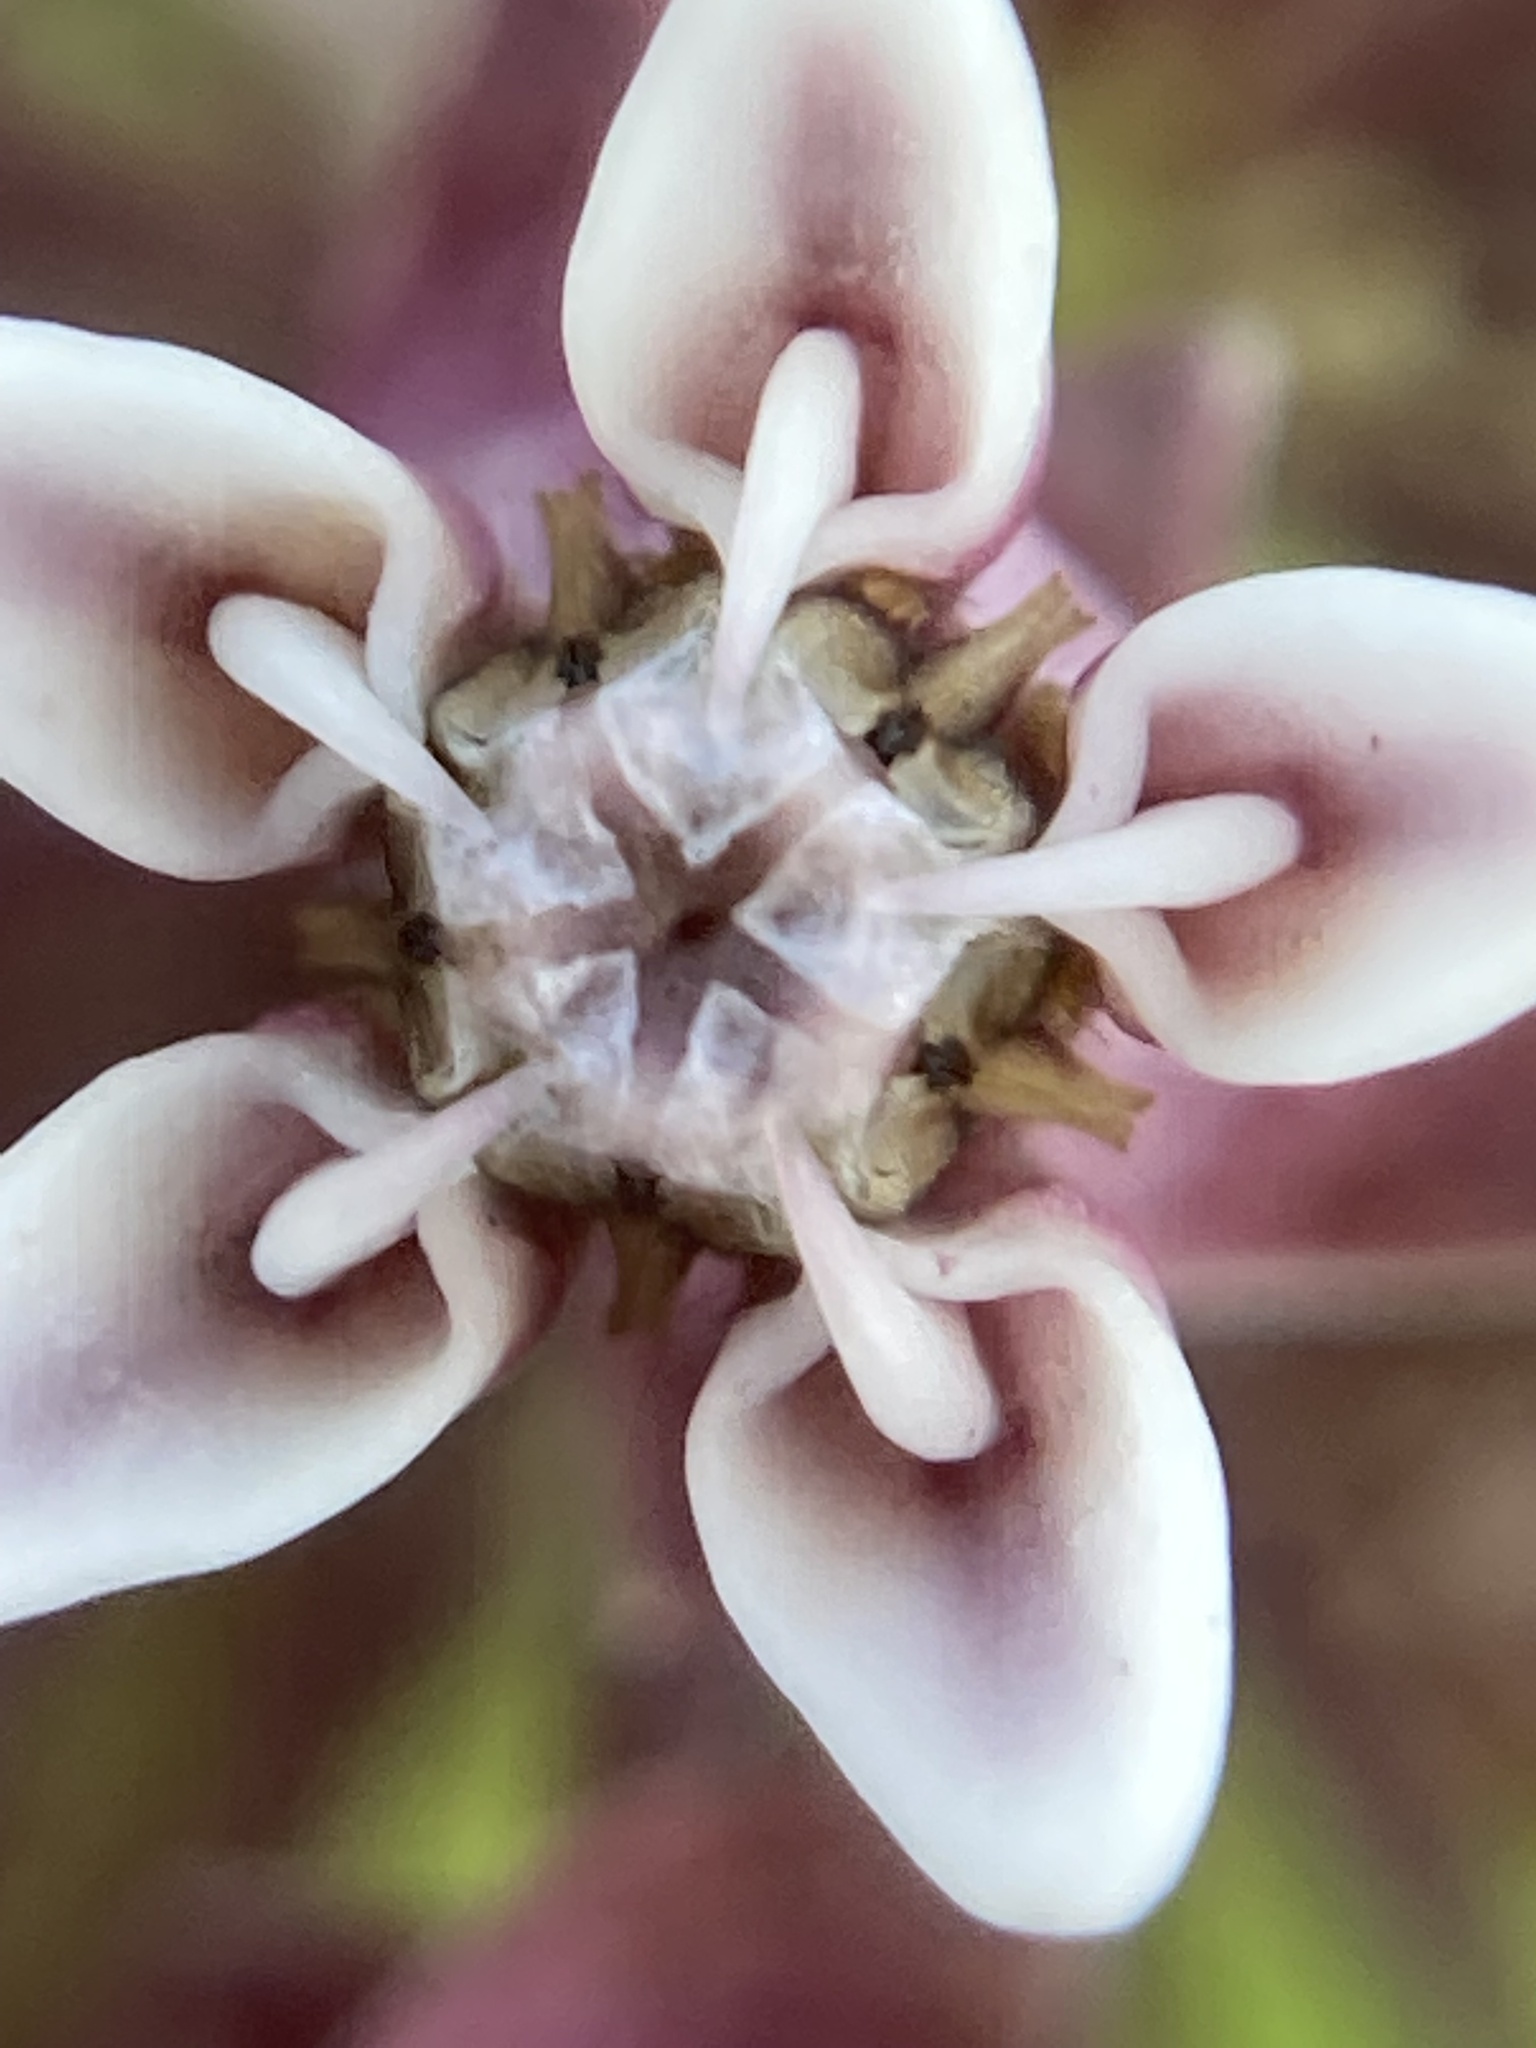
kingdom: Plantae
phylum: Tracheophyta
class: Magnoliopsida
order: Gentianales
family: Apocynaceae
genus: Asclepias
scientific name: Asclepias syriaca
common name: Common milkweed
